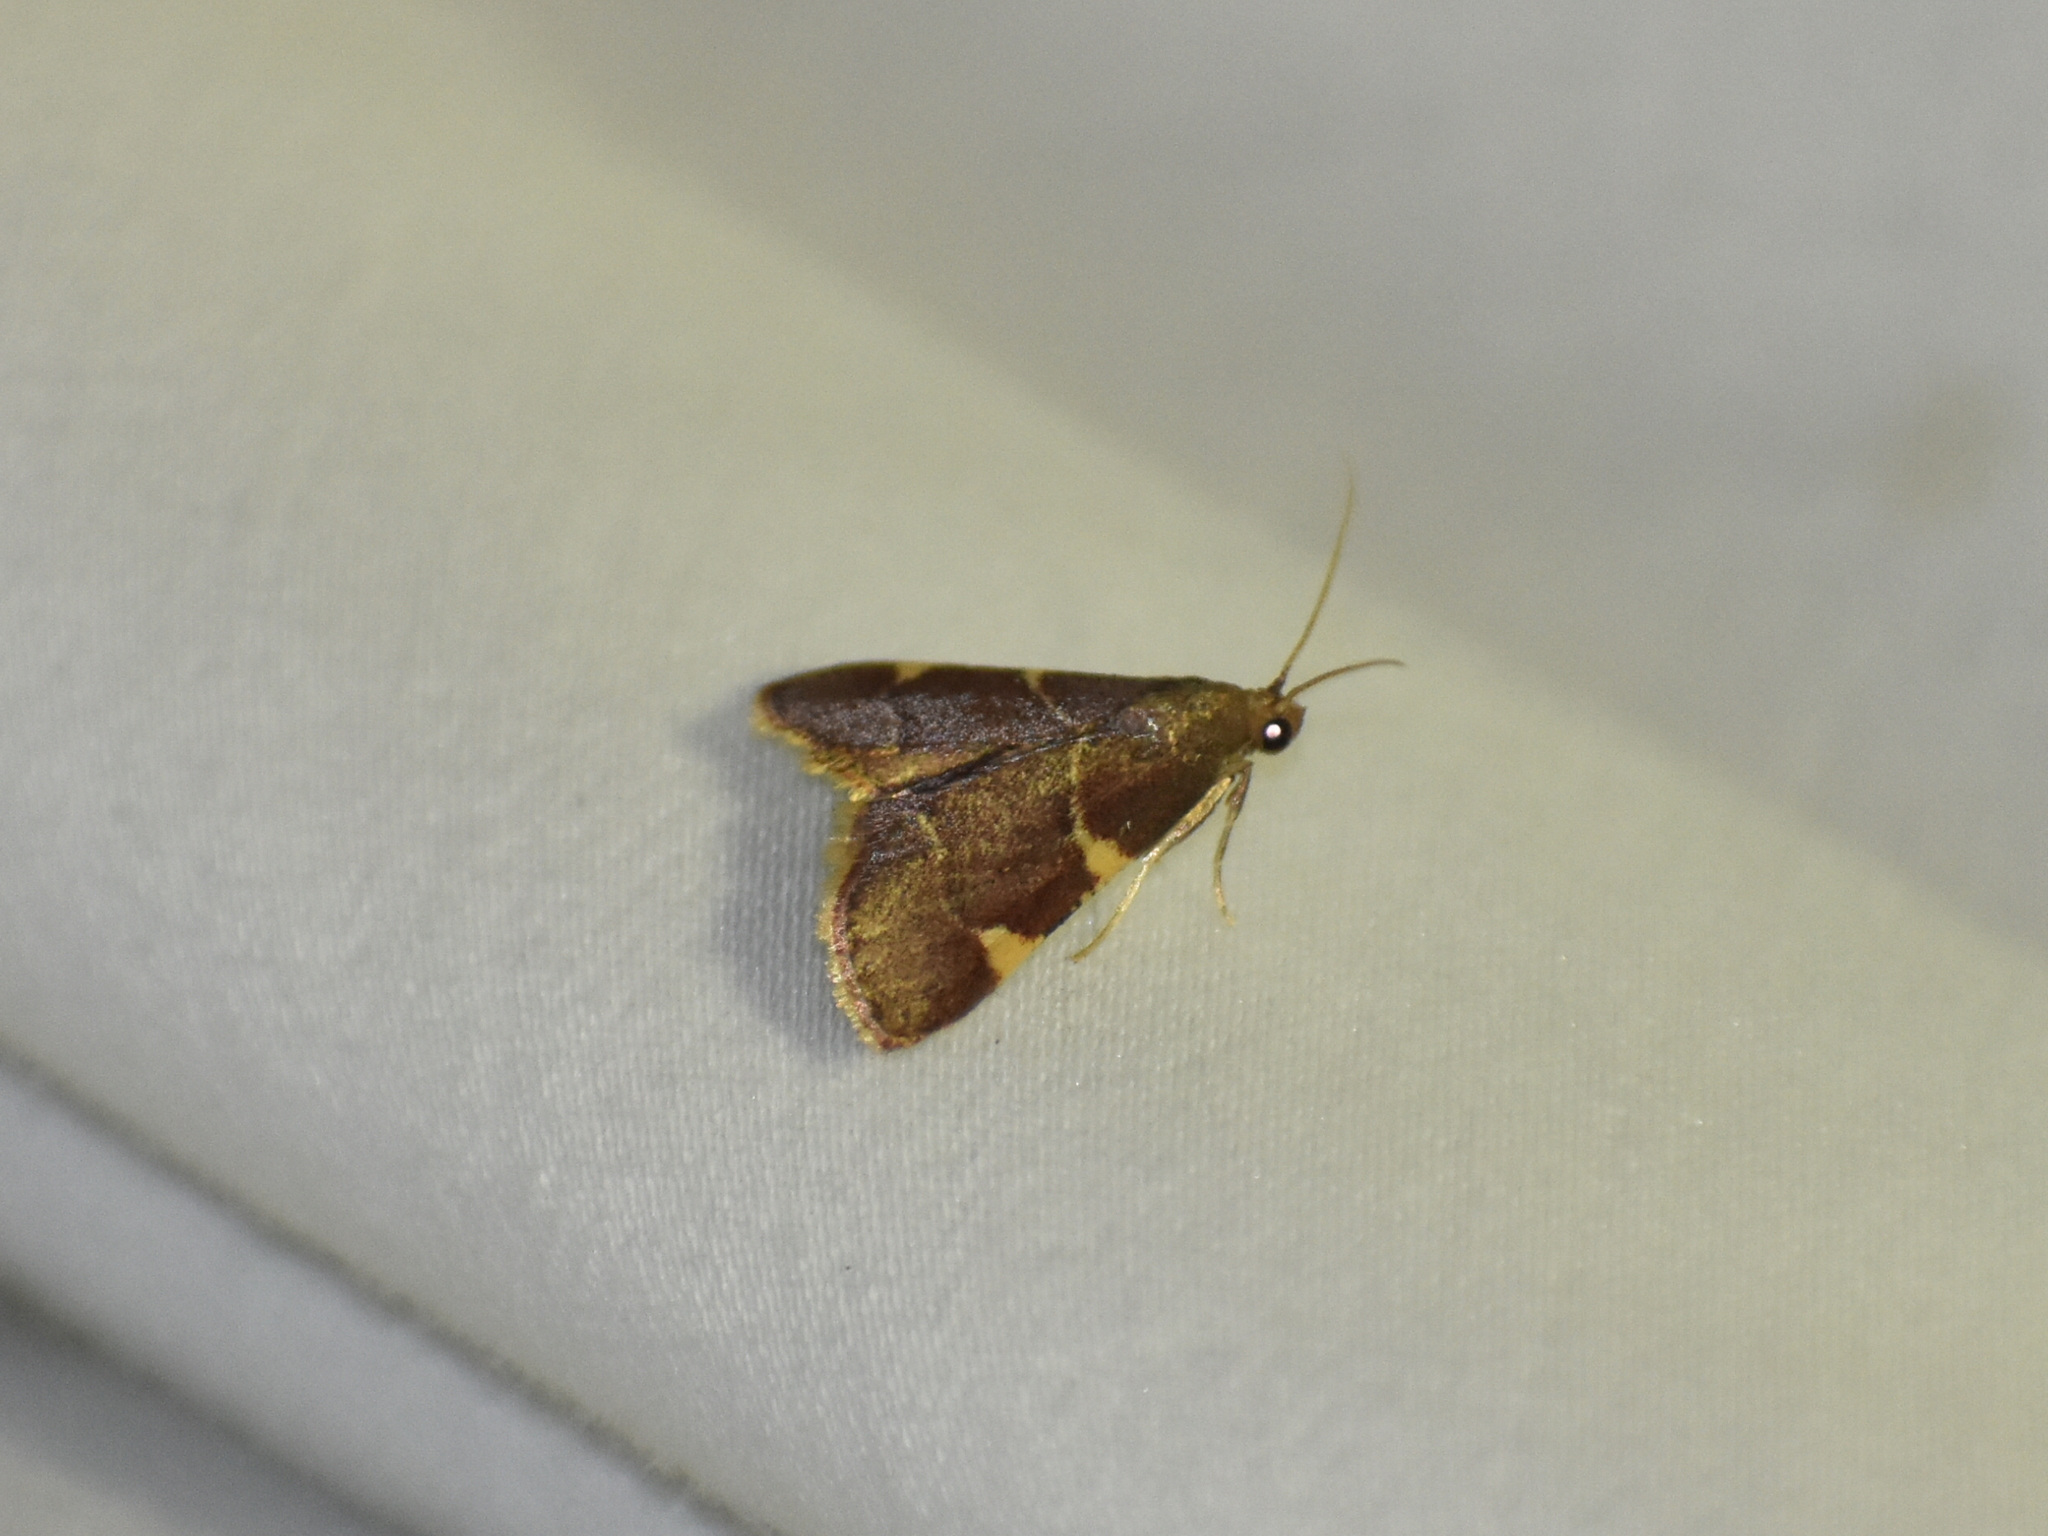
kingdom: Animalia
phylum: Arthropoda
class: Insecta
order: Lepidoptera
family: Pyralidae
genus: Hypsopygia
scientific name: Hypsopygia olinalis
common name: Yellow-fringed dolichomia moth
